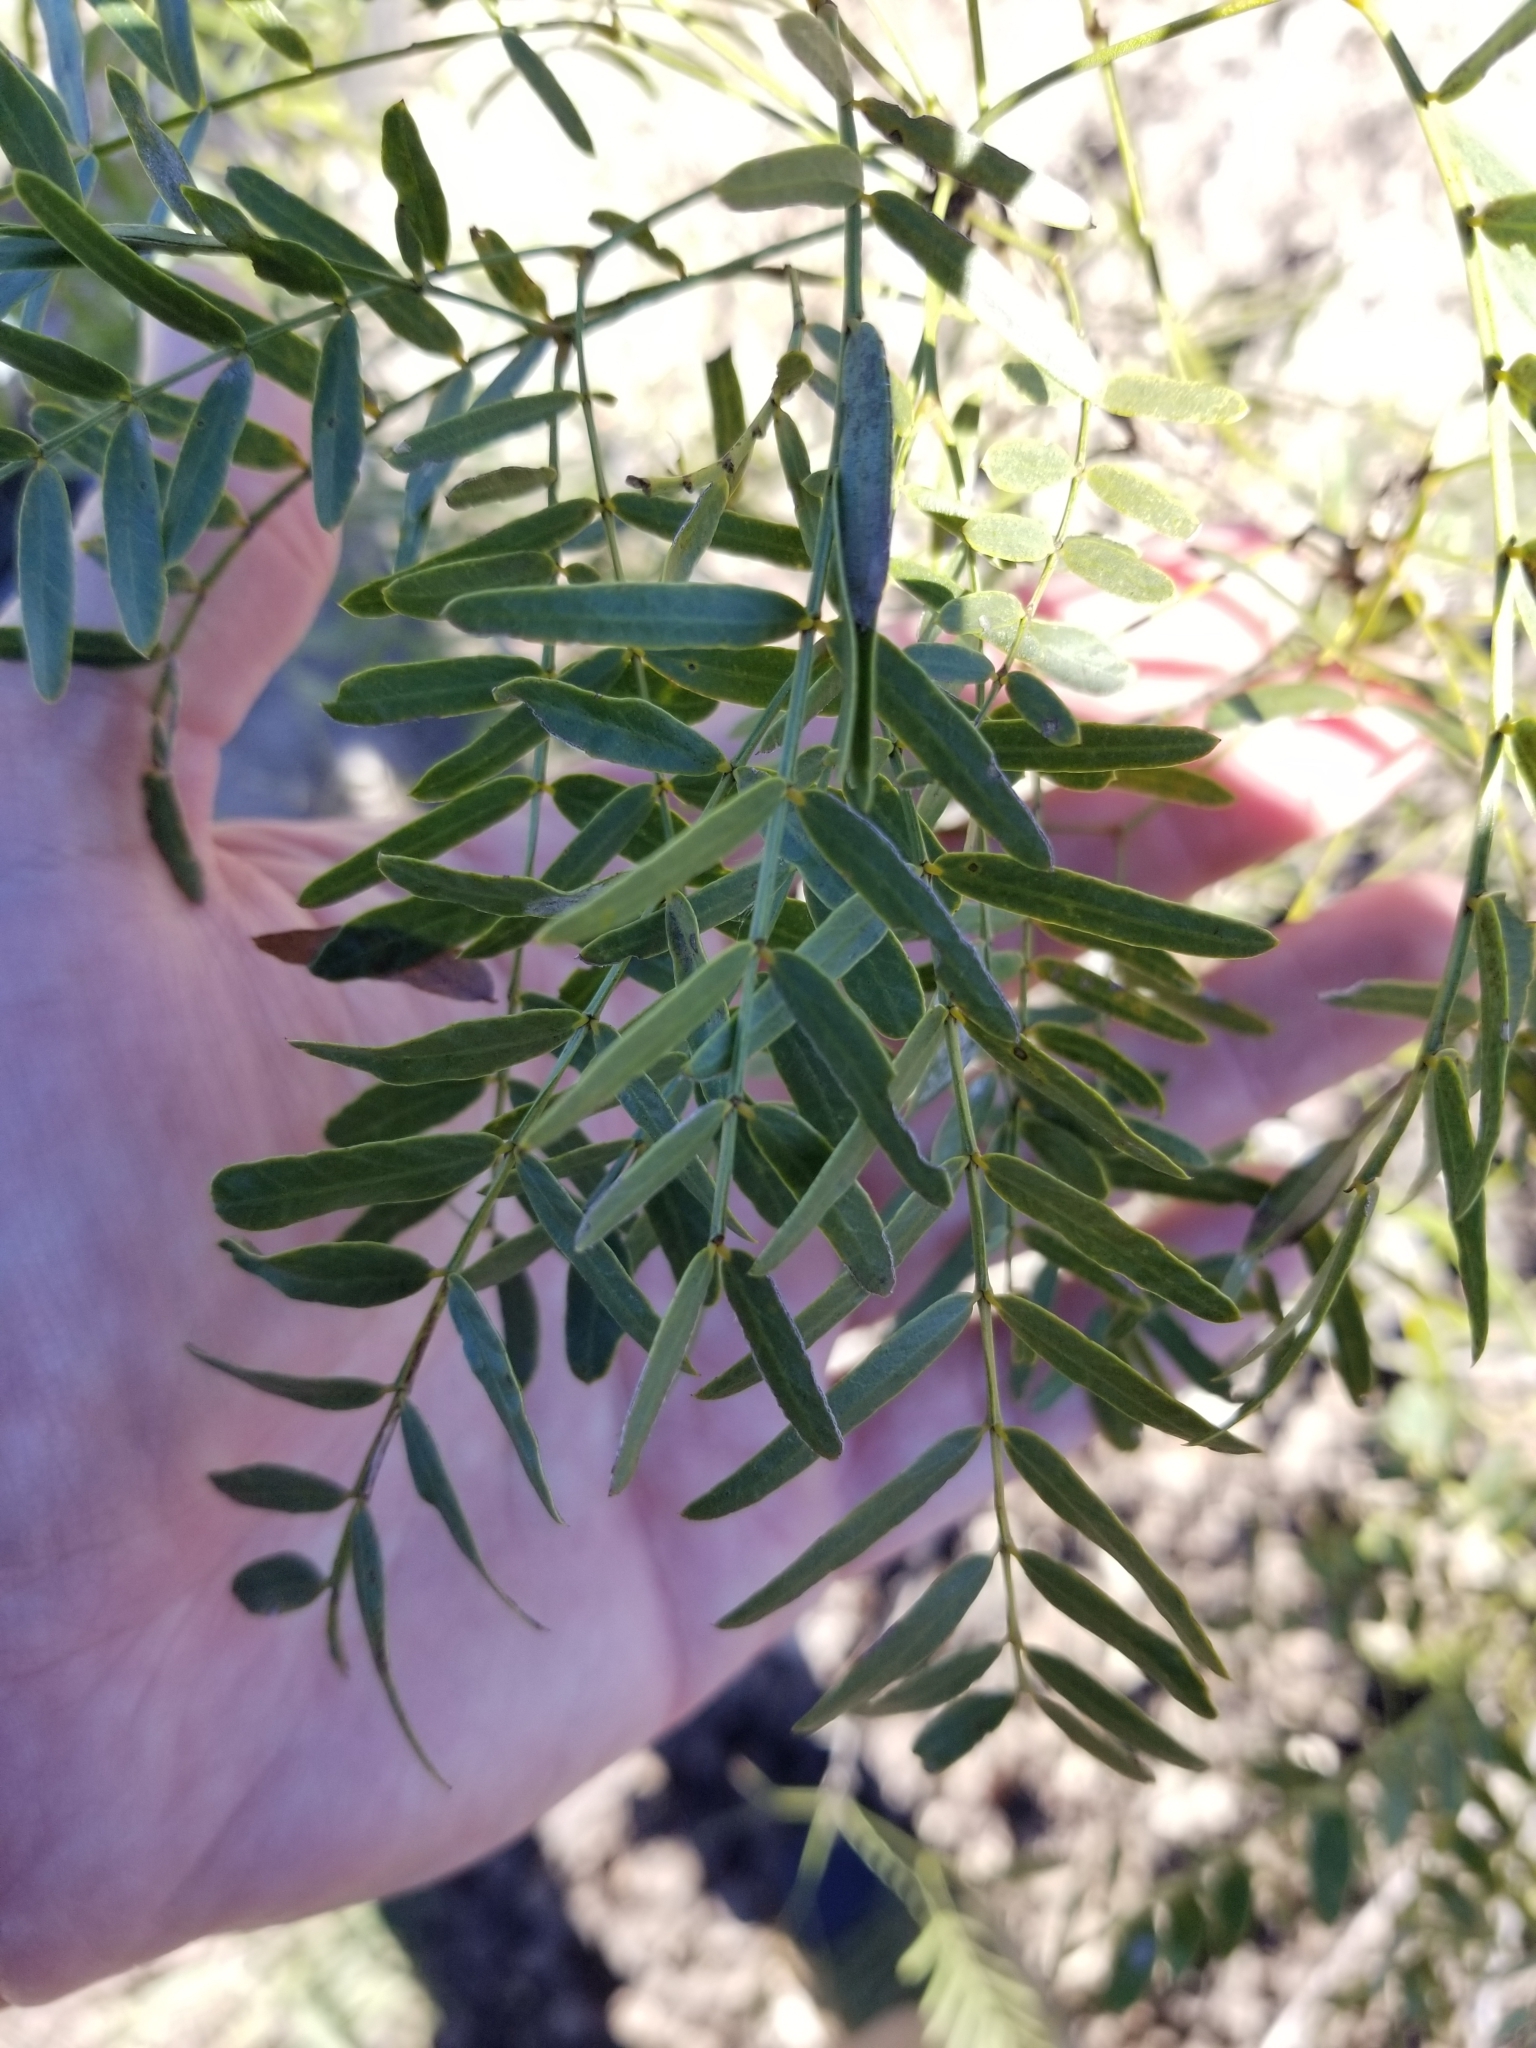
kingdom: Plantae
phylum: Tracheophyta
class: Magnoliopsida
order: Fabales
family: Fabaceae
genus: Prosopis
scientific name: Prosopis glandulosa
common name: Honey mesquite
